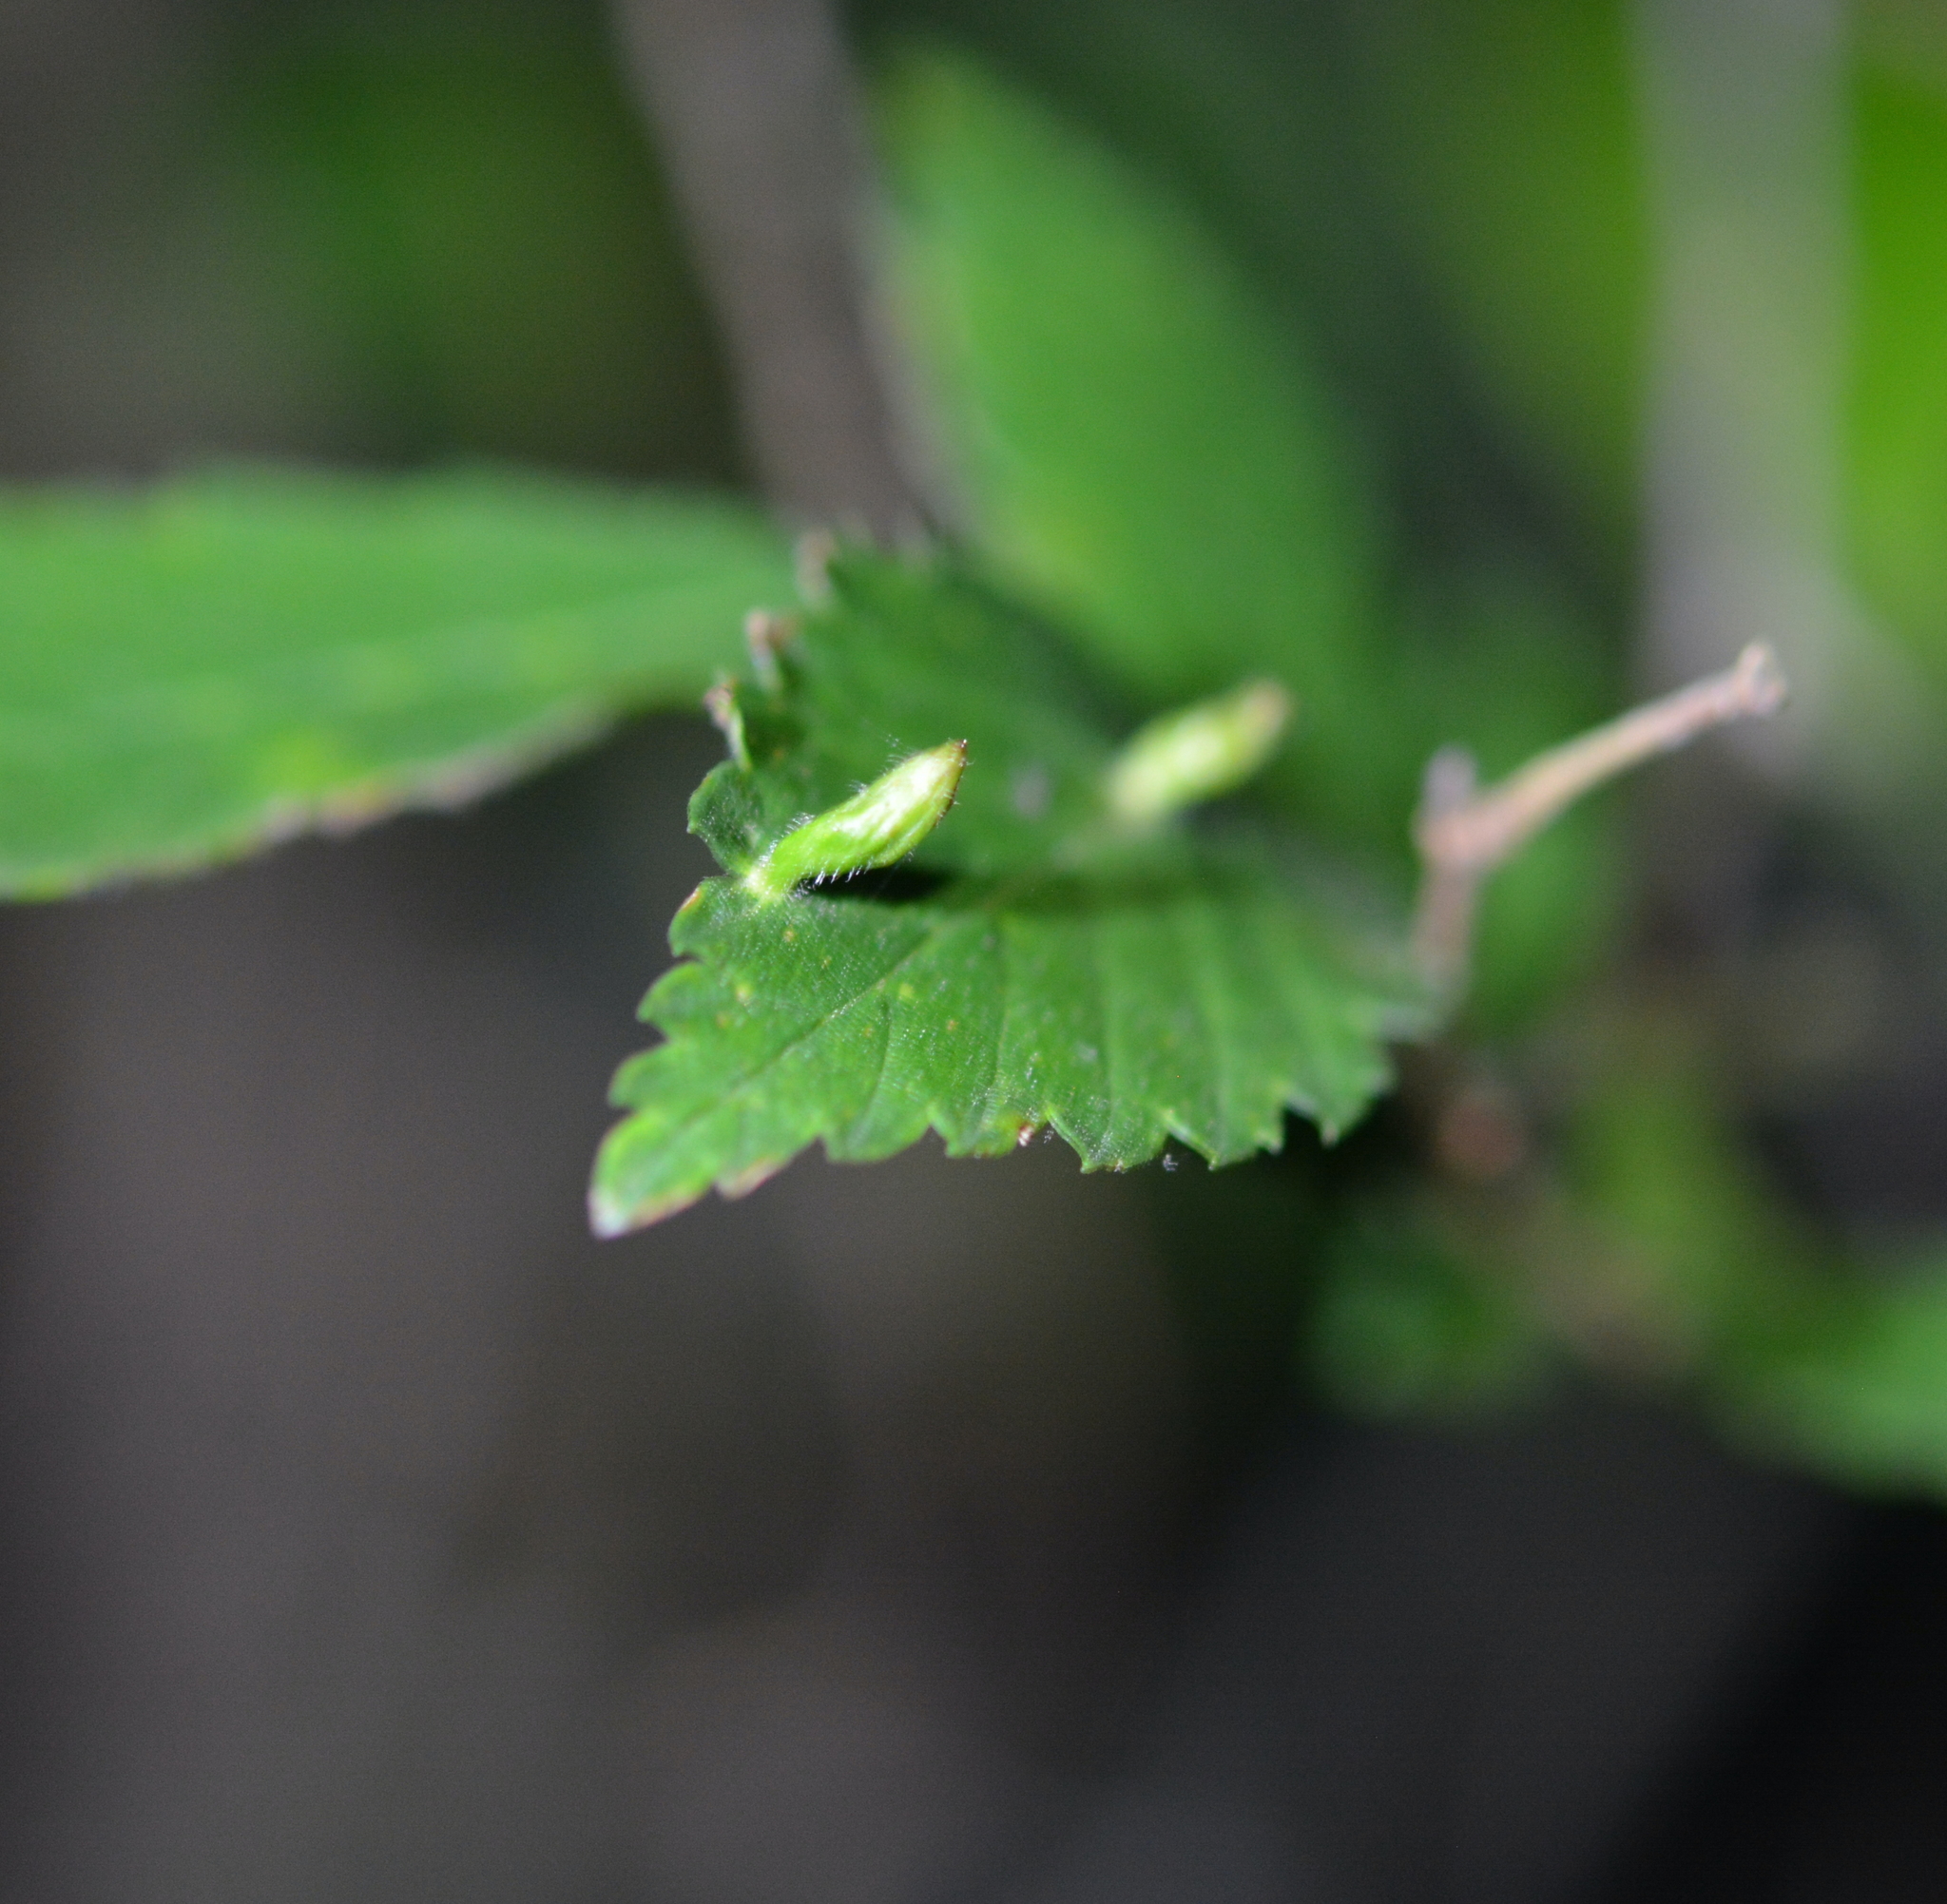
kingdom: Animalia
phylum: Arthropoda
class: Arachnida
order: Trombidiformes
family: Eriophyidae
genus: Aceria
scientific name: Aceria
